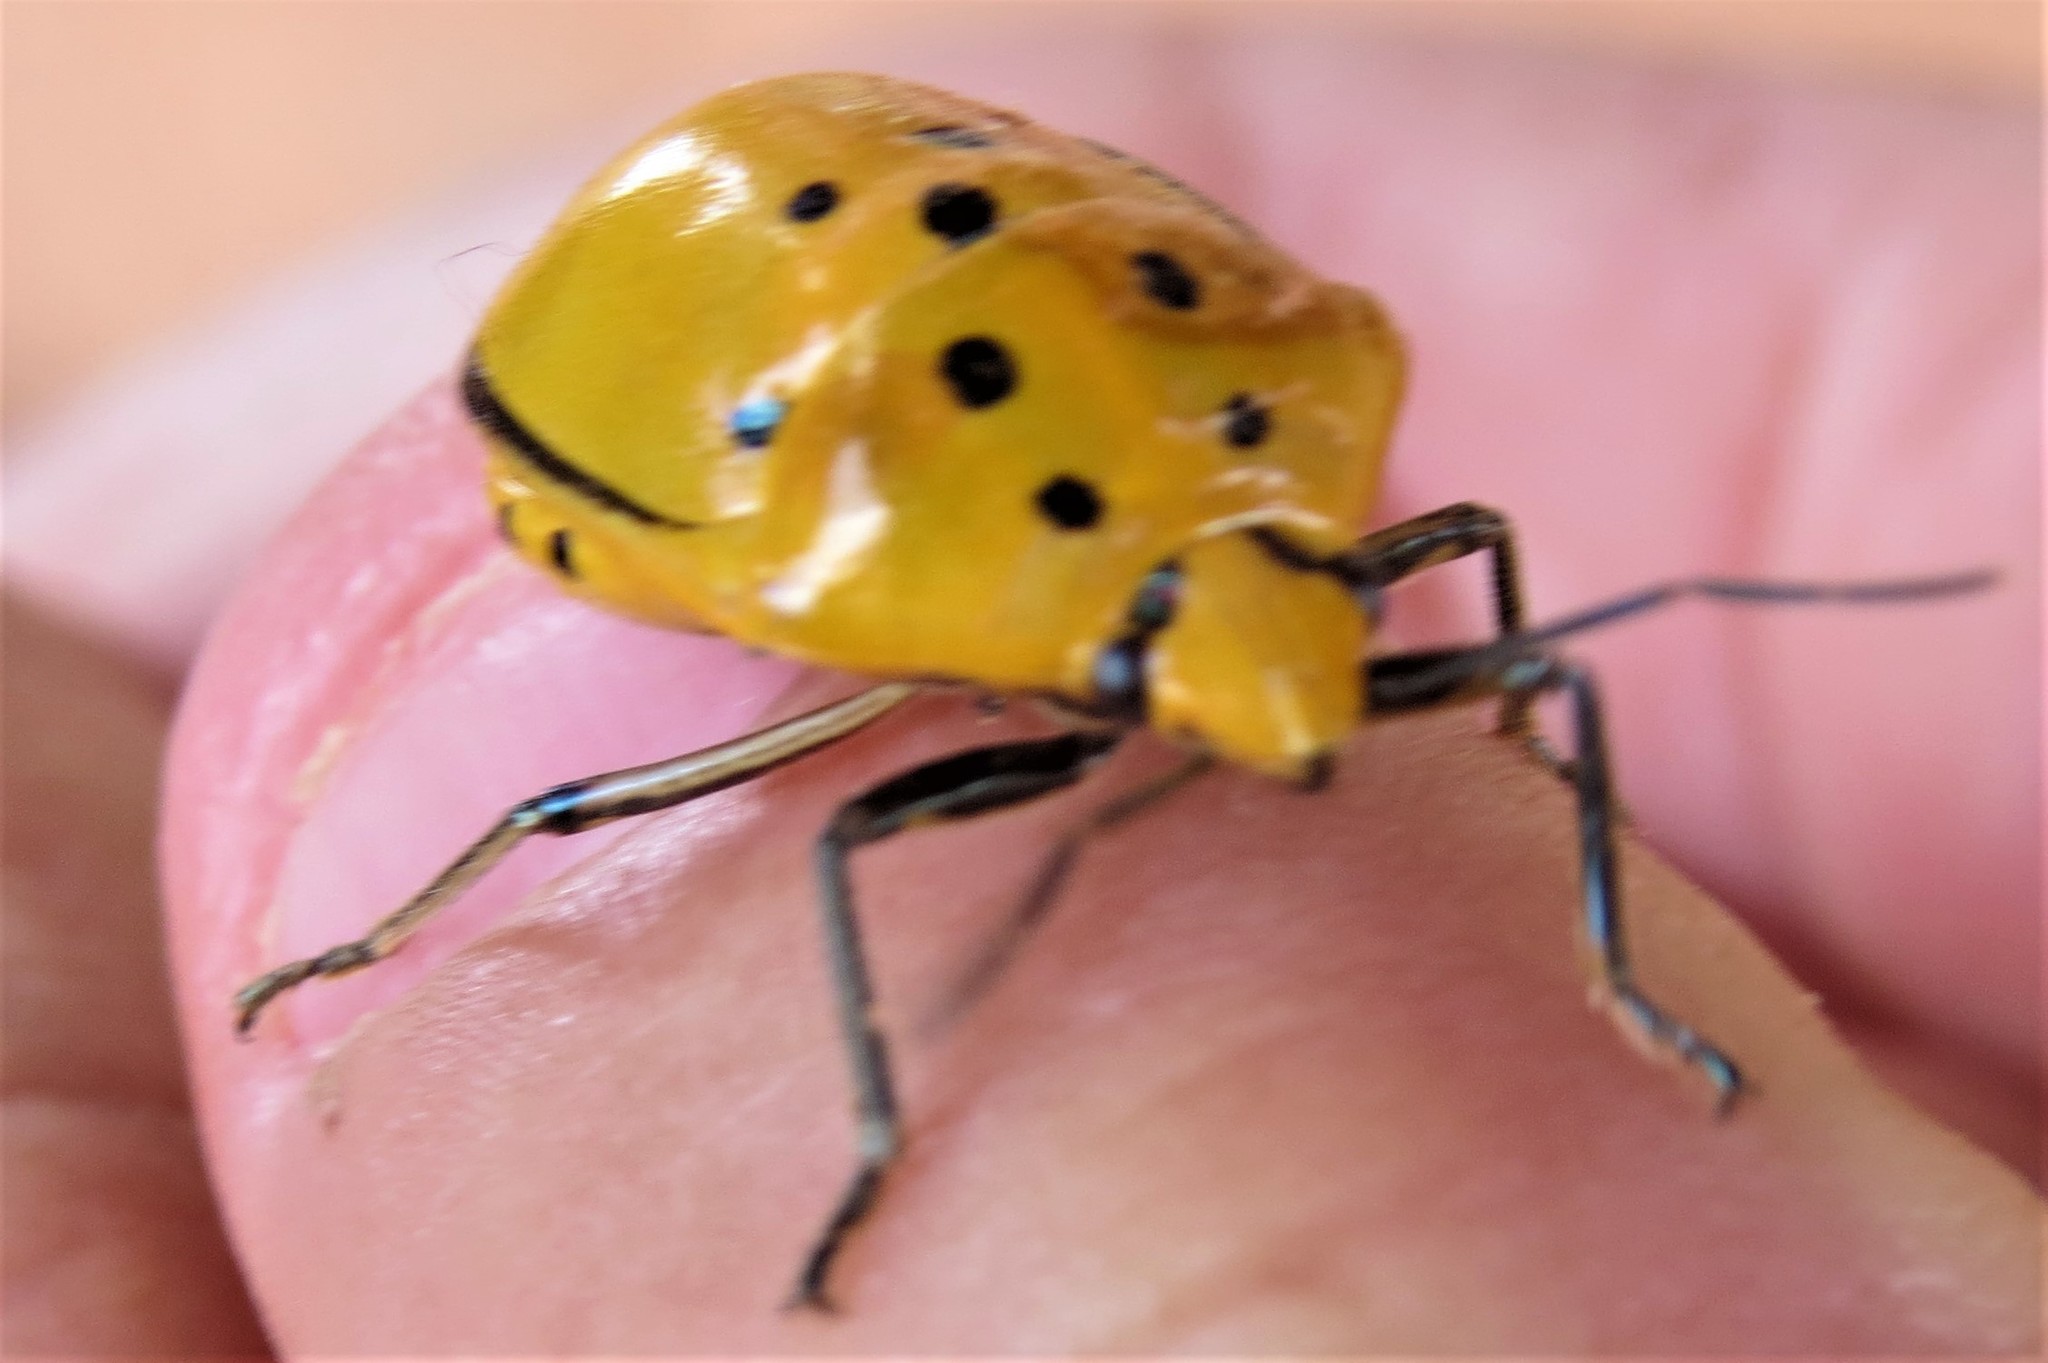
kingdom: Animalia
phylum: Arthropoda
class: Insecta
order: Hemiptera
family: Scutelleridae
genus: Augocoris
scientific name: Augocoris gomesii
